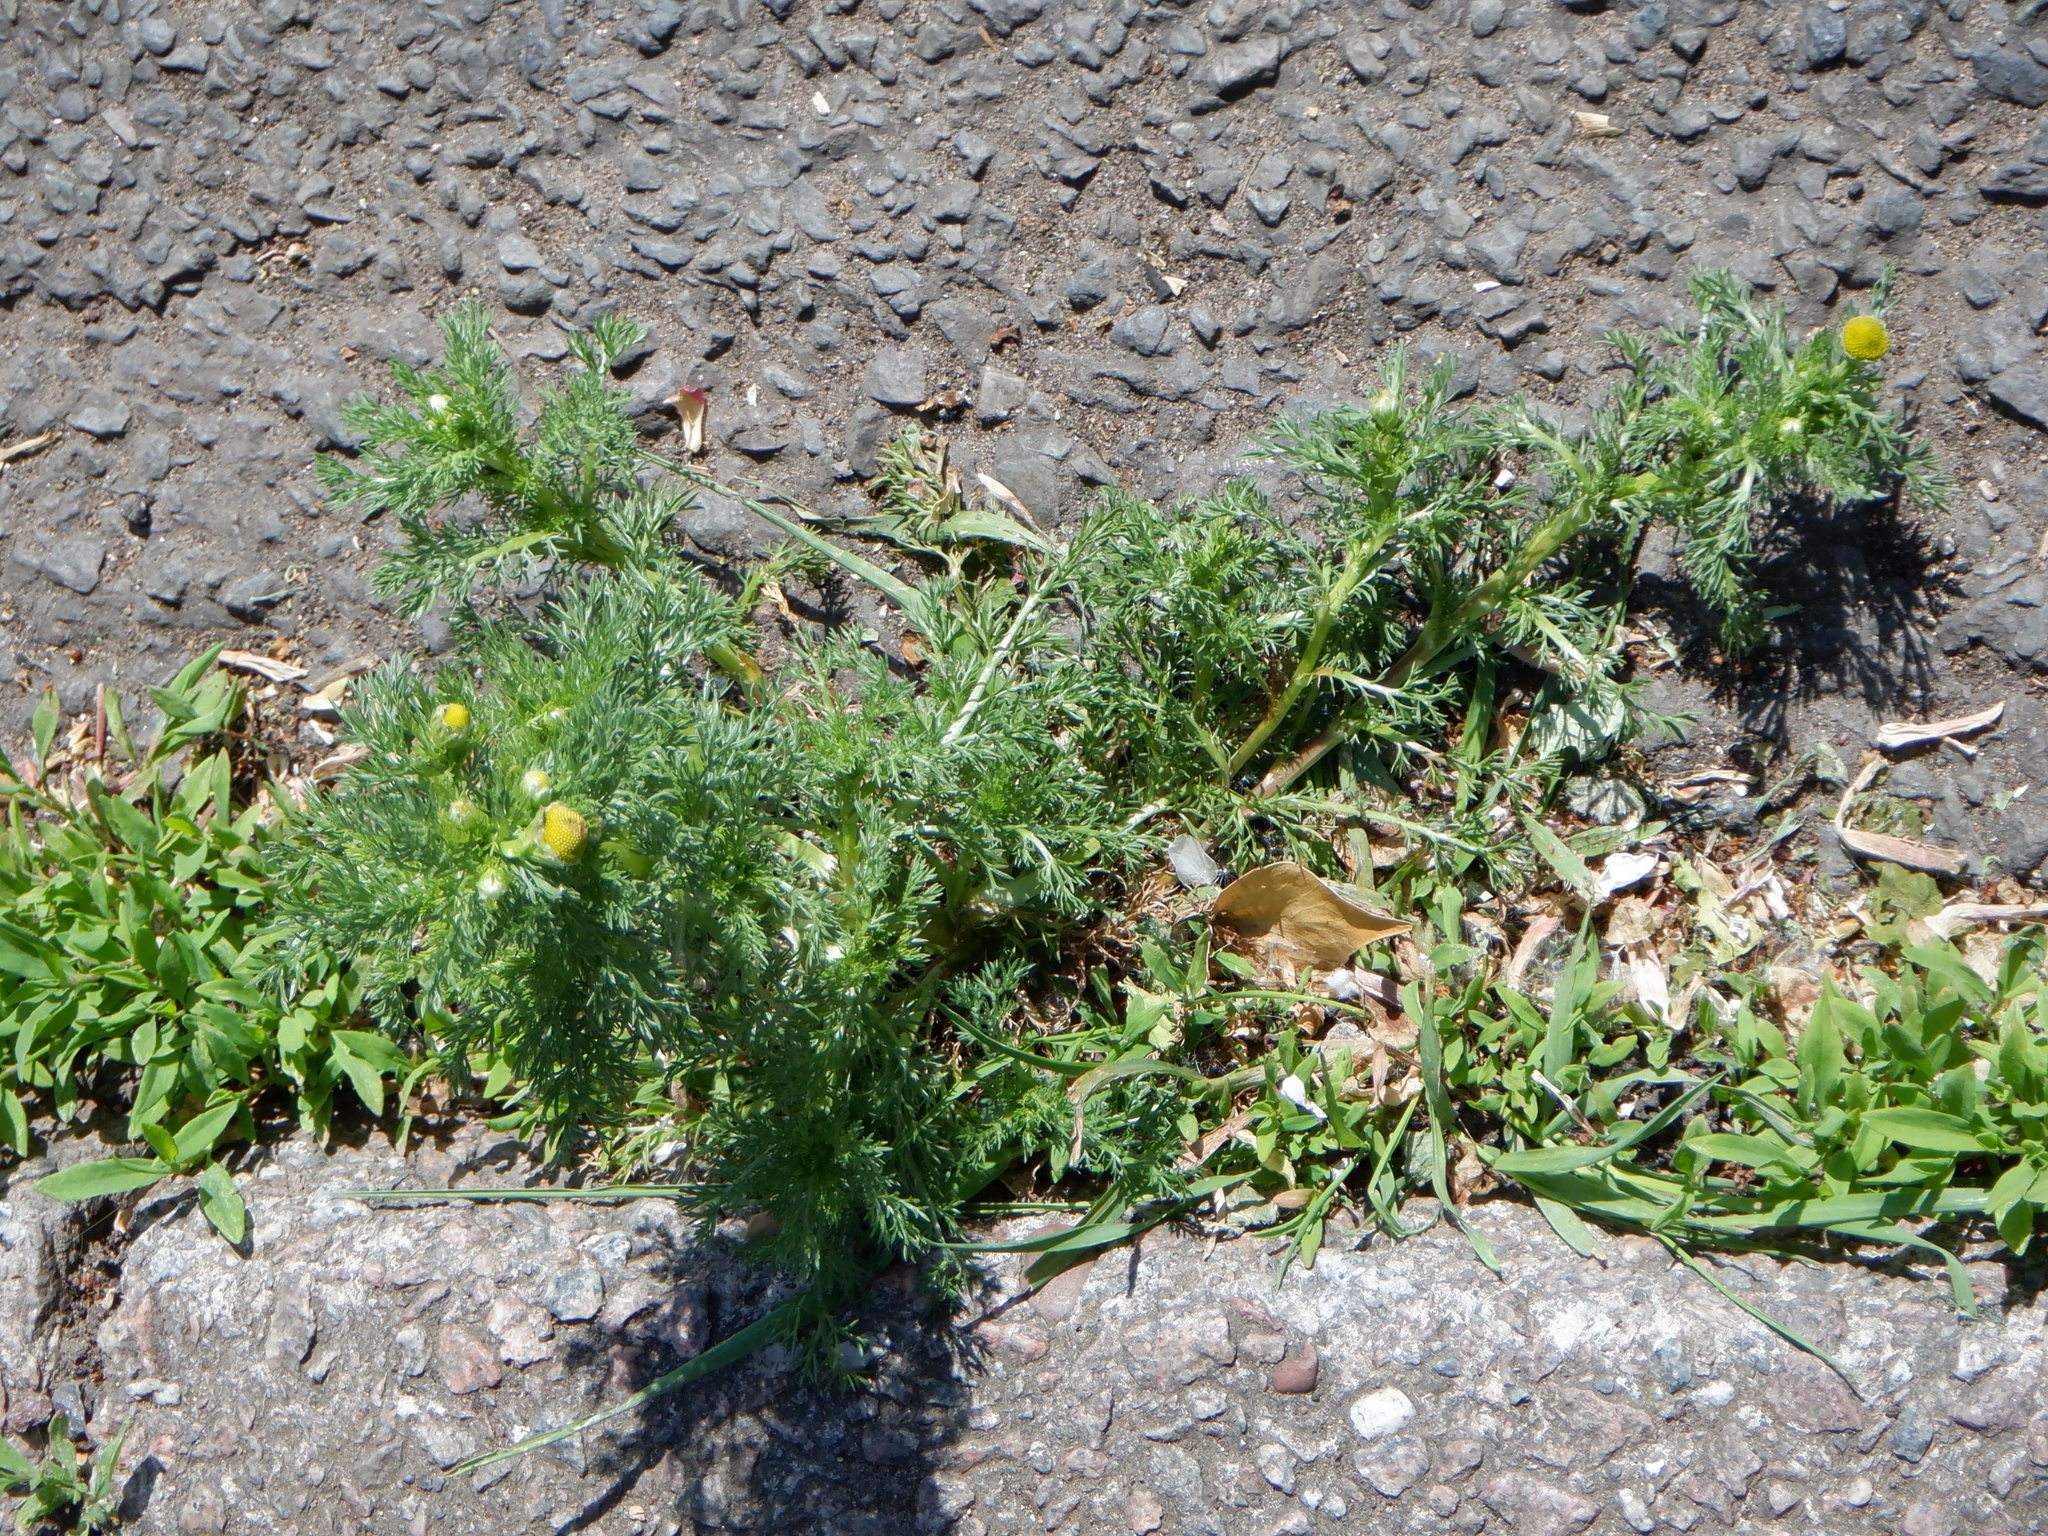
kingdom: Plantae
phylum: Tracheophyta
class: Magnoliopsida
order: Asterales
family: Asteraceae
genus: Matricaria
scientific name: Matricaria discoidea
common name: Disc mayweed
